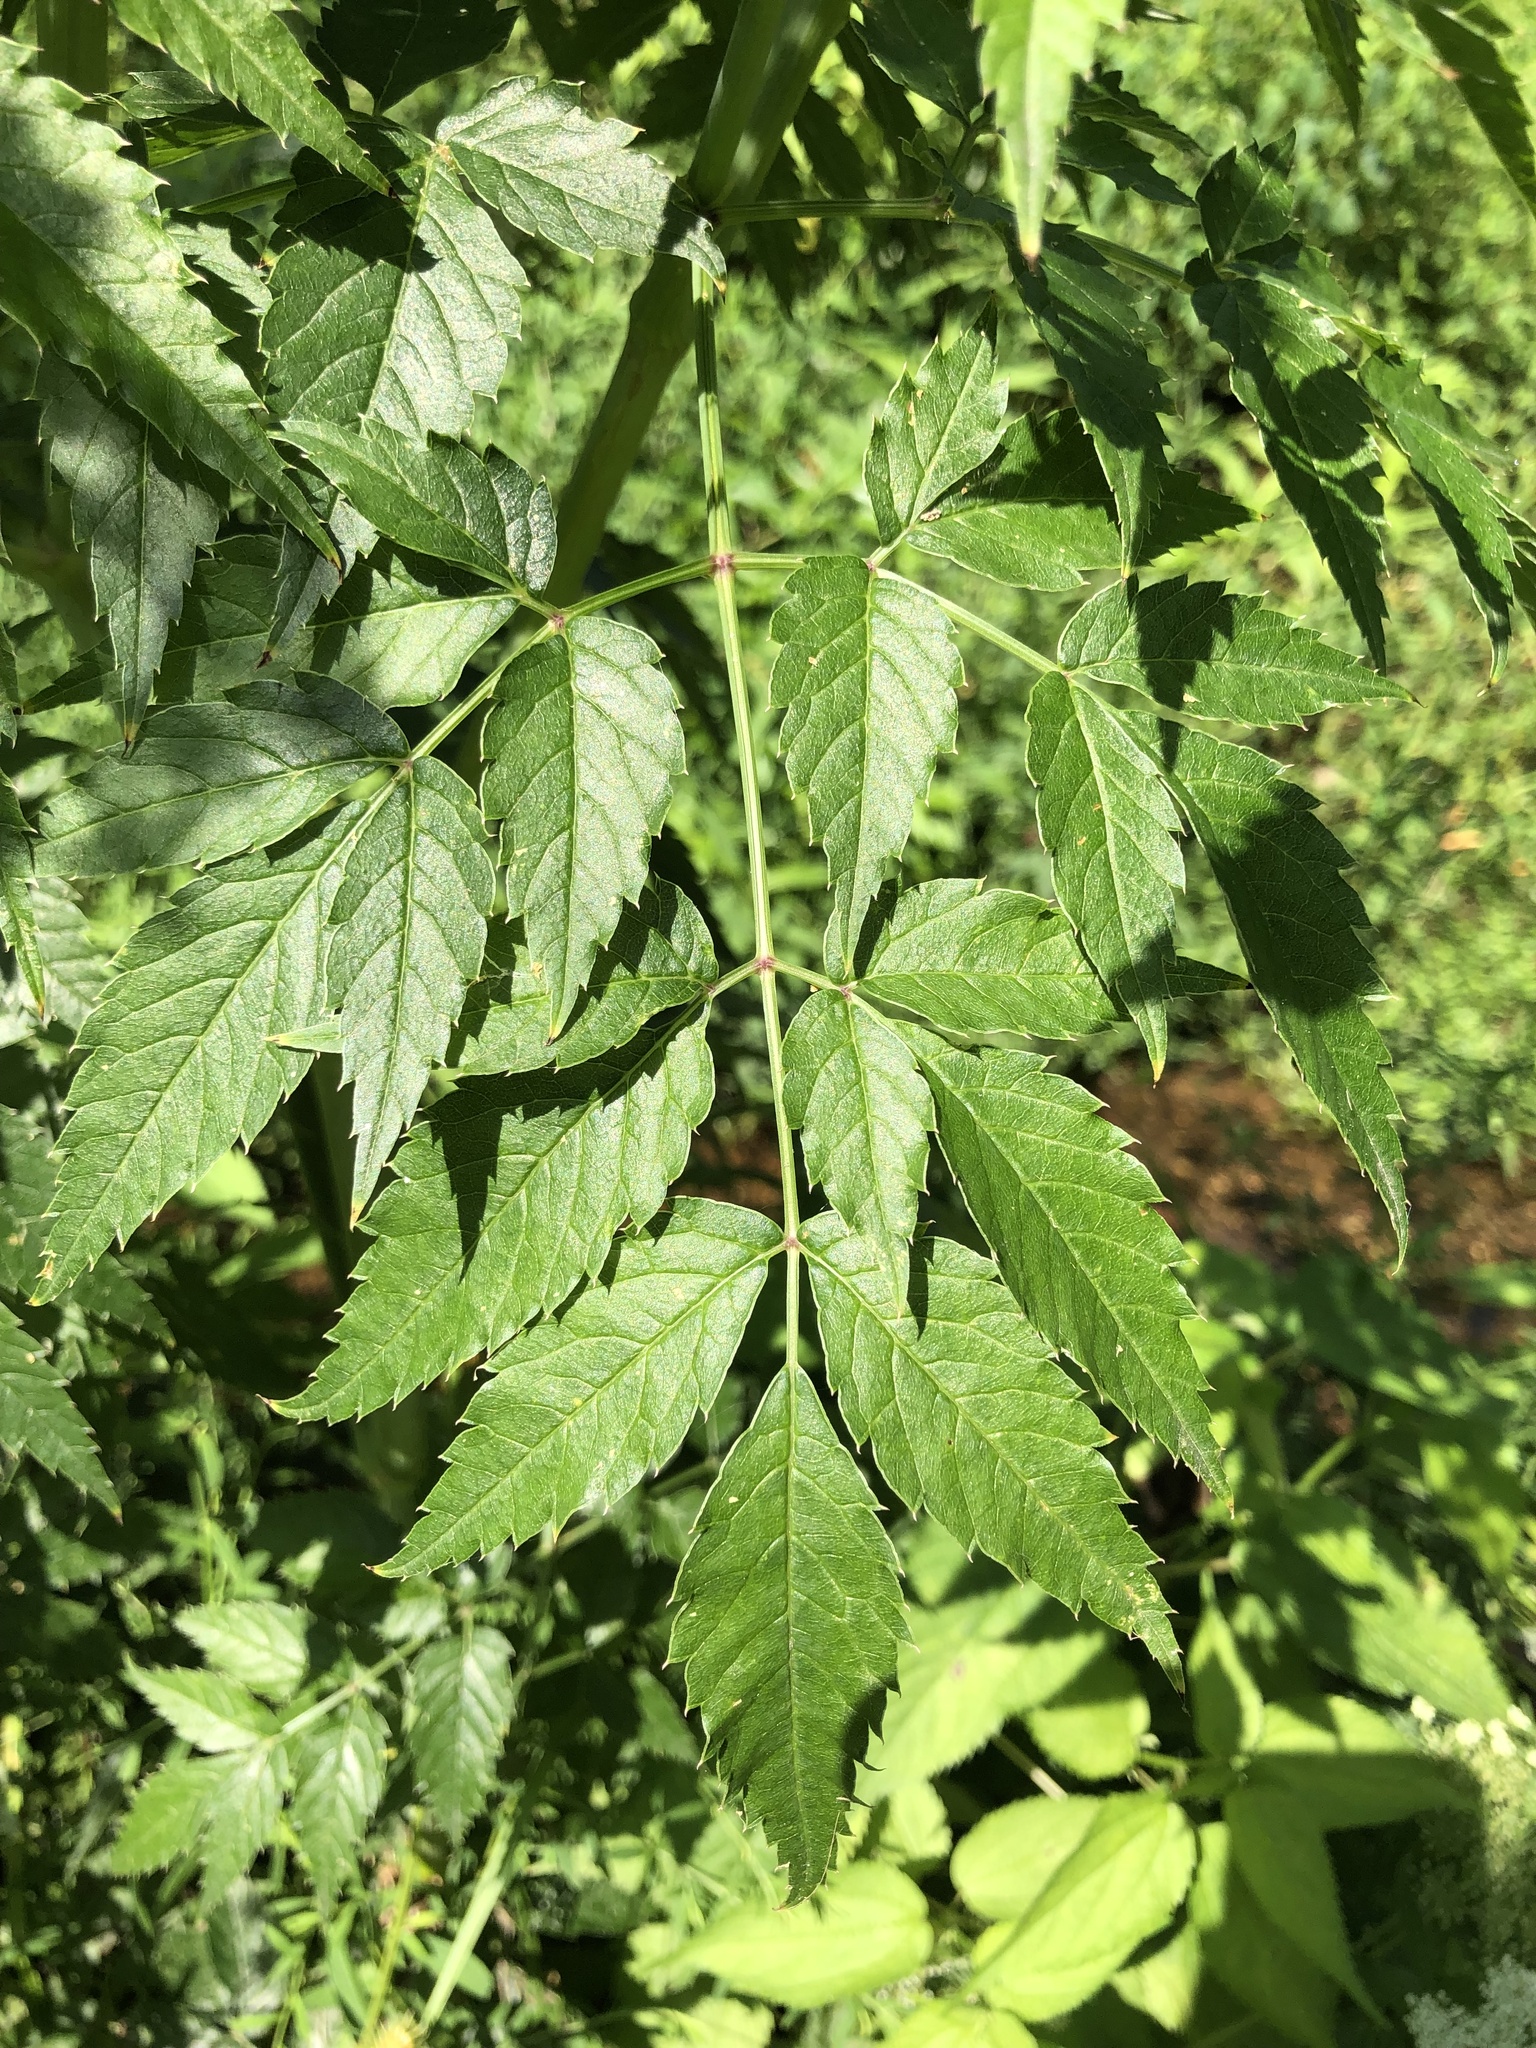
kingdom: Plantae
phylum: Tracheophyta
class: Magnoliopsida
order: Apiales
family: Apiaceae
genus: Cicuta
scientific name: Cicuta maculata
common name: Spotted cowbane
